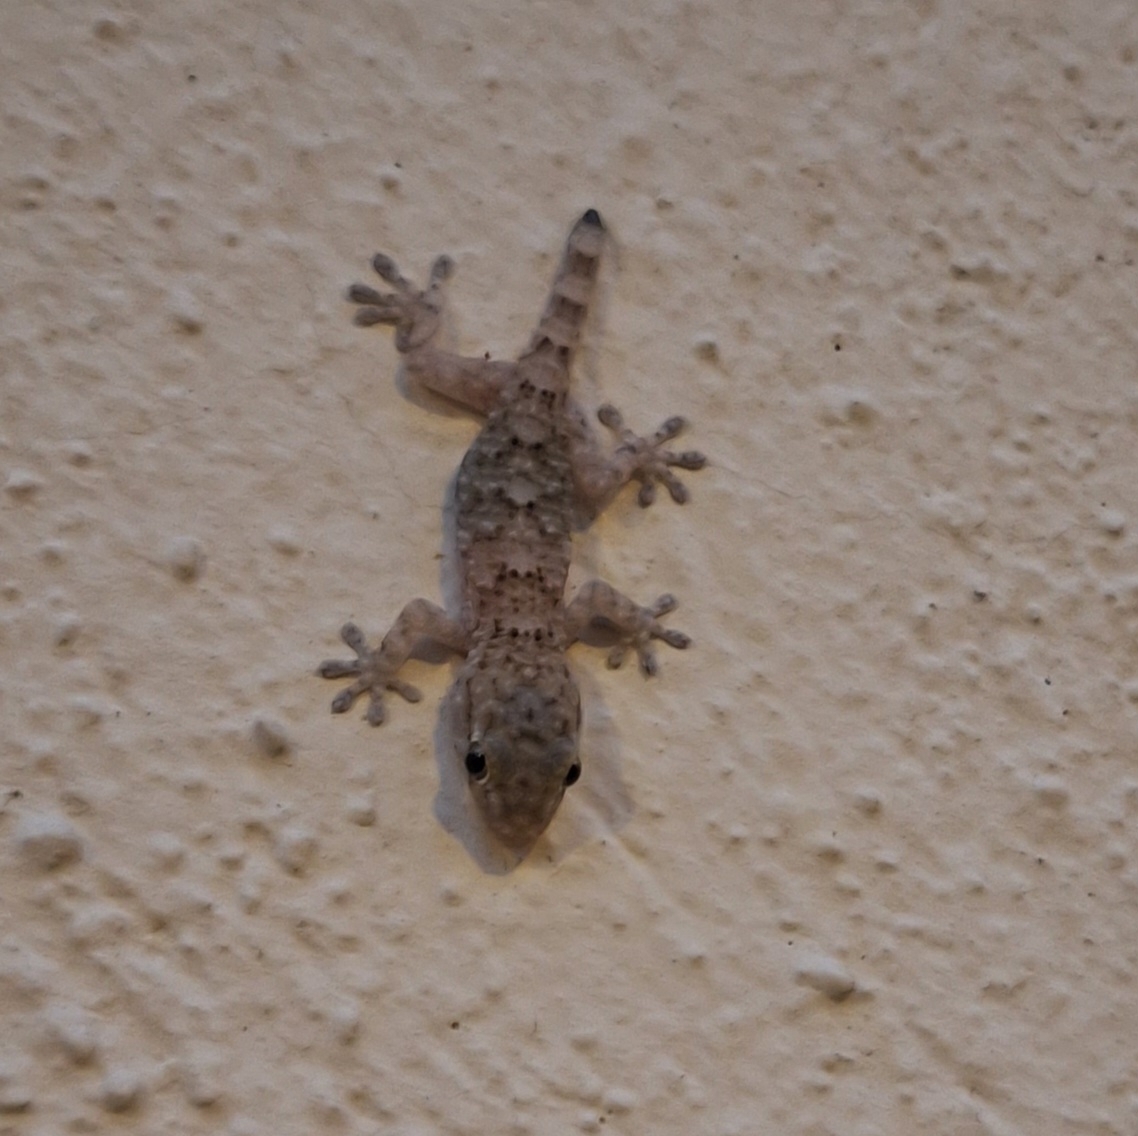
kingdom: Animalia
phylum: Chordata
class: Squamata
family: Phyllodactylidae
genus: Tarentola
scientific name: Tarentola mauritanica
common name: Moorish gecko
